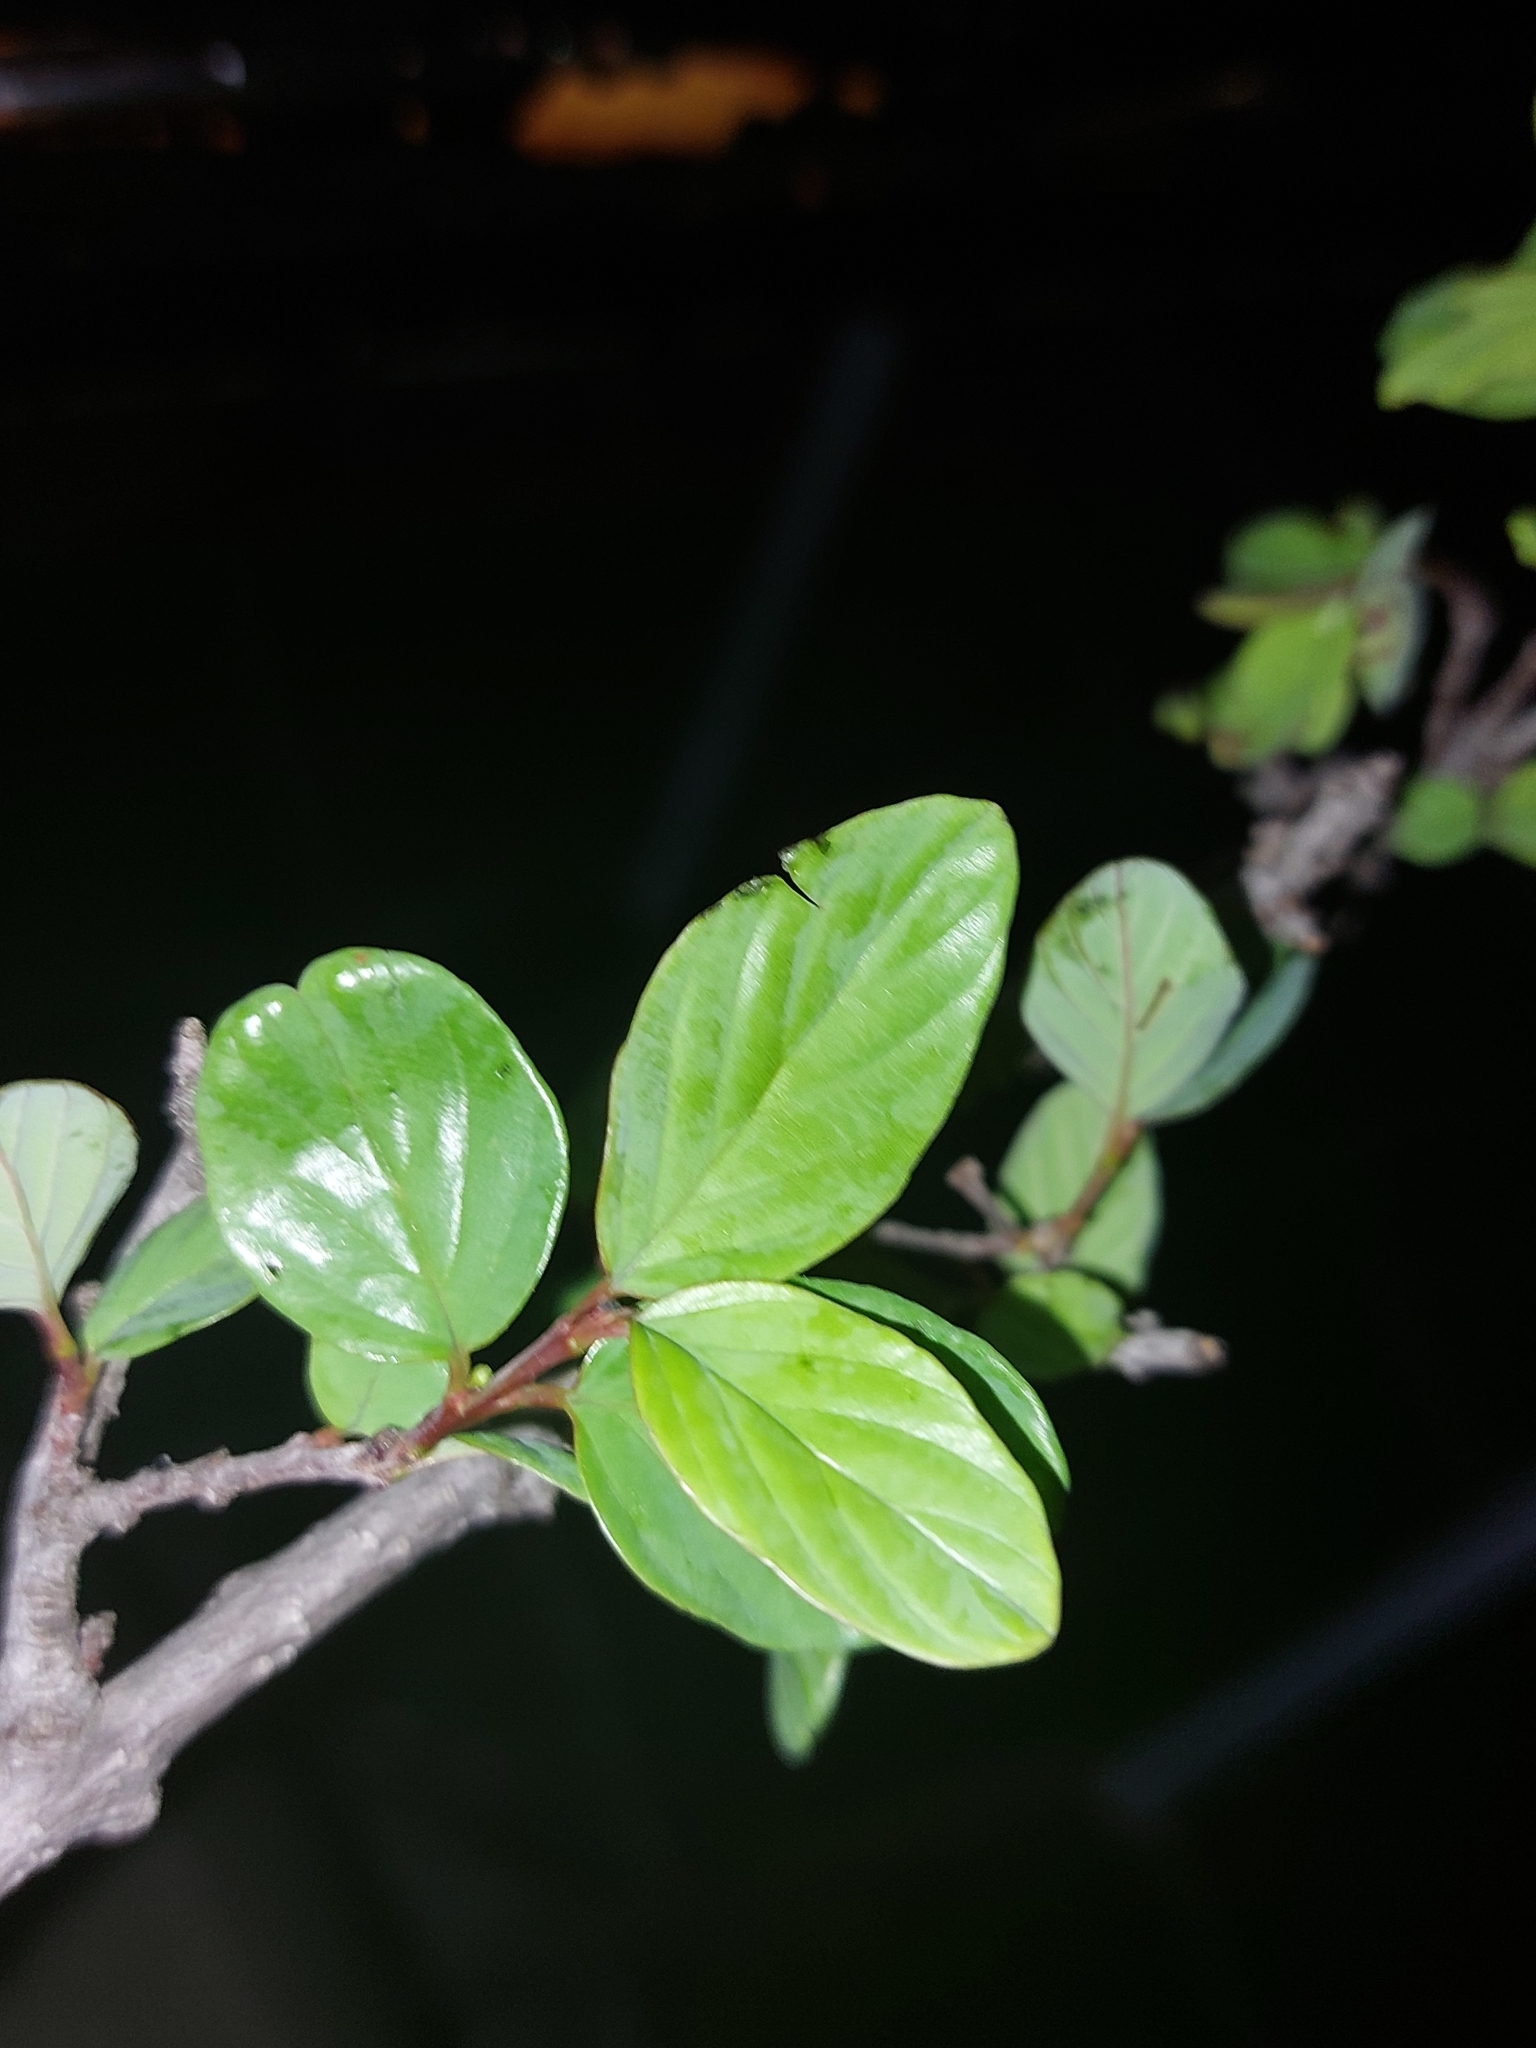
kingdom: Plantae
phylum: Tracheophyta
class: Magnoliopsida
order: Rosales
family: Rhamnaceae
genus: Phyllogeiton
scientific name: Phyllogeiton zeyheri
